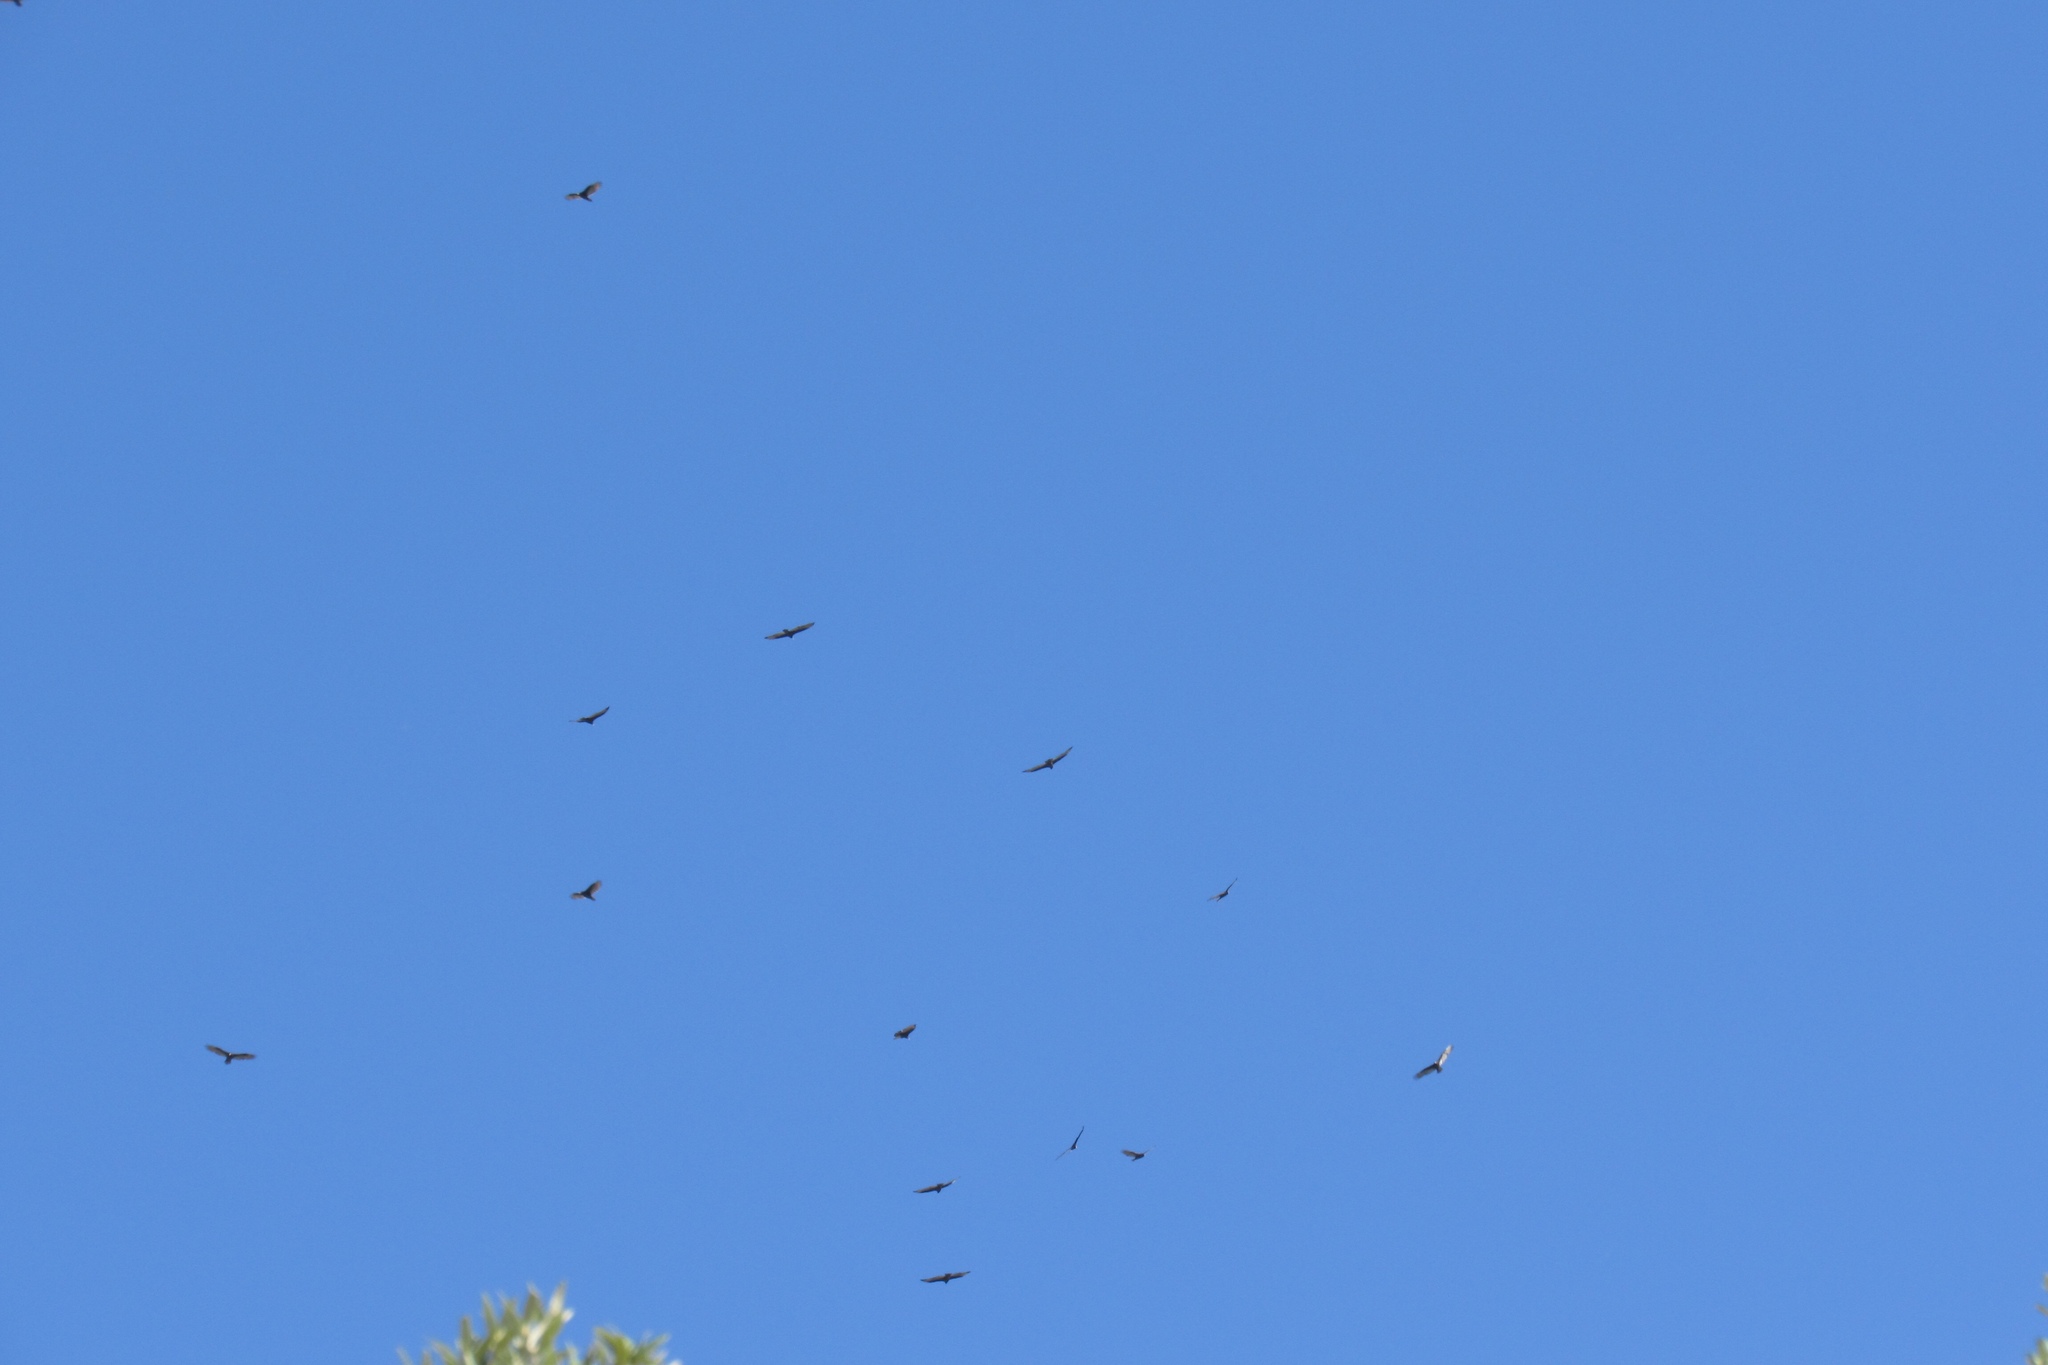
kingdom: Animalia
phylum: Chordata
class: Aves
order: Accipitriformes
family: Cathartidae
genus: Cathartes
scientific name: Cathartes aura
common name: Turkey vulture
